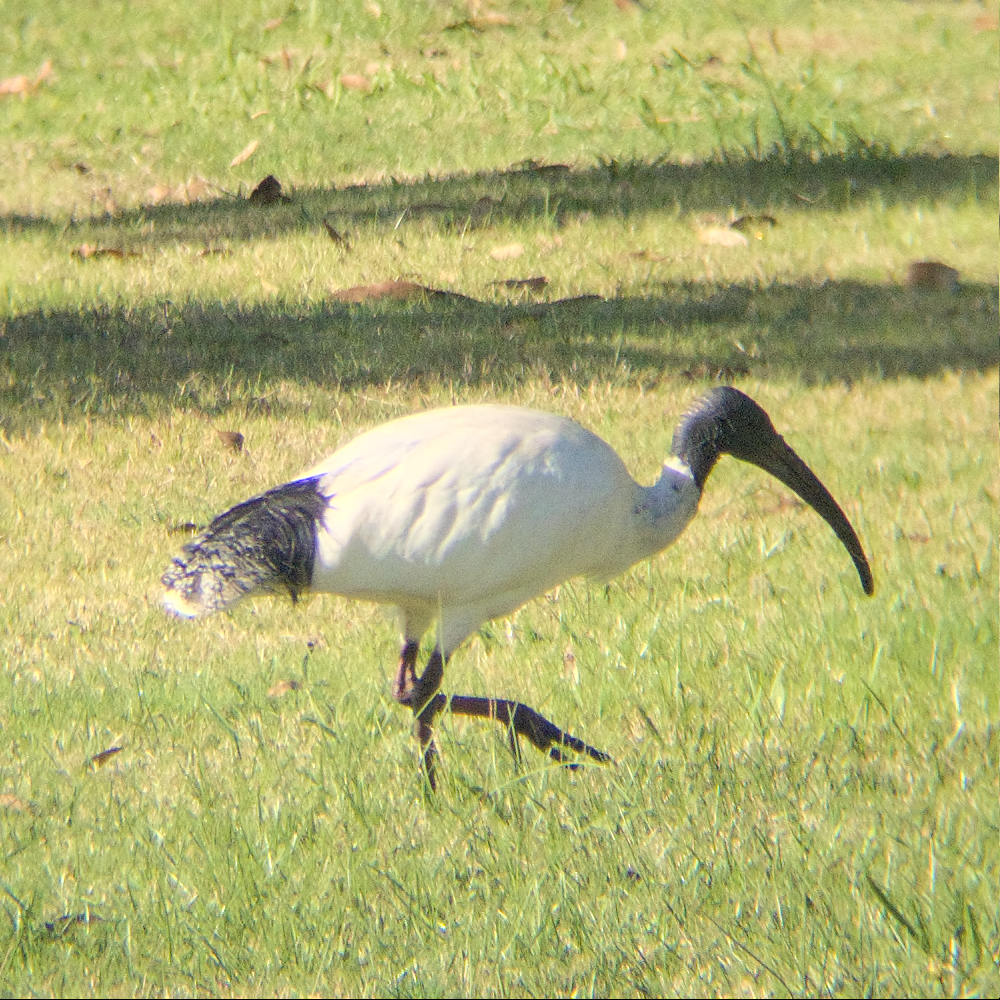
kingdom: Animalia
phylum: Chordata
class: Aves
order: Pelecaniformes
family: Threskiornithidae
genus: Threskiornis
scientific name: Threskiornis molucca
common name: Australian white ibis
